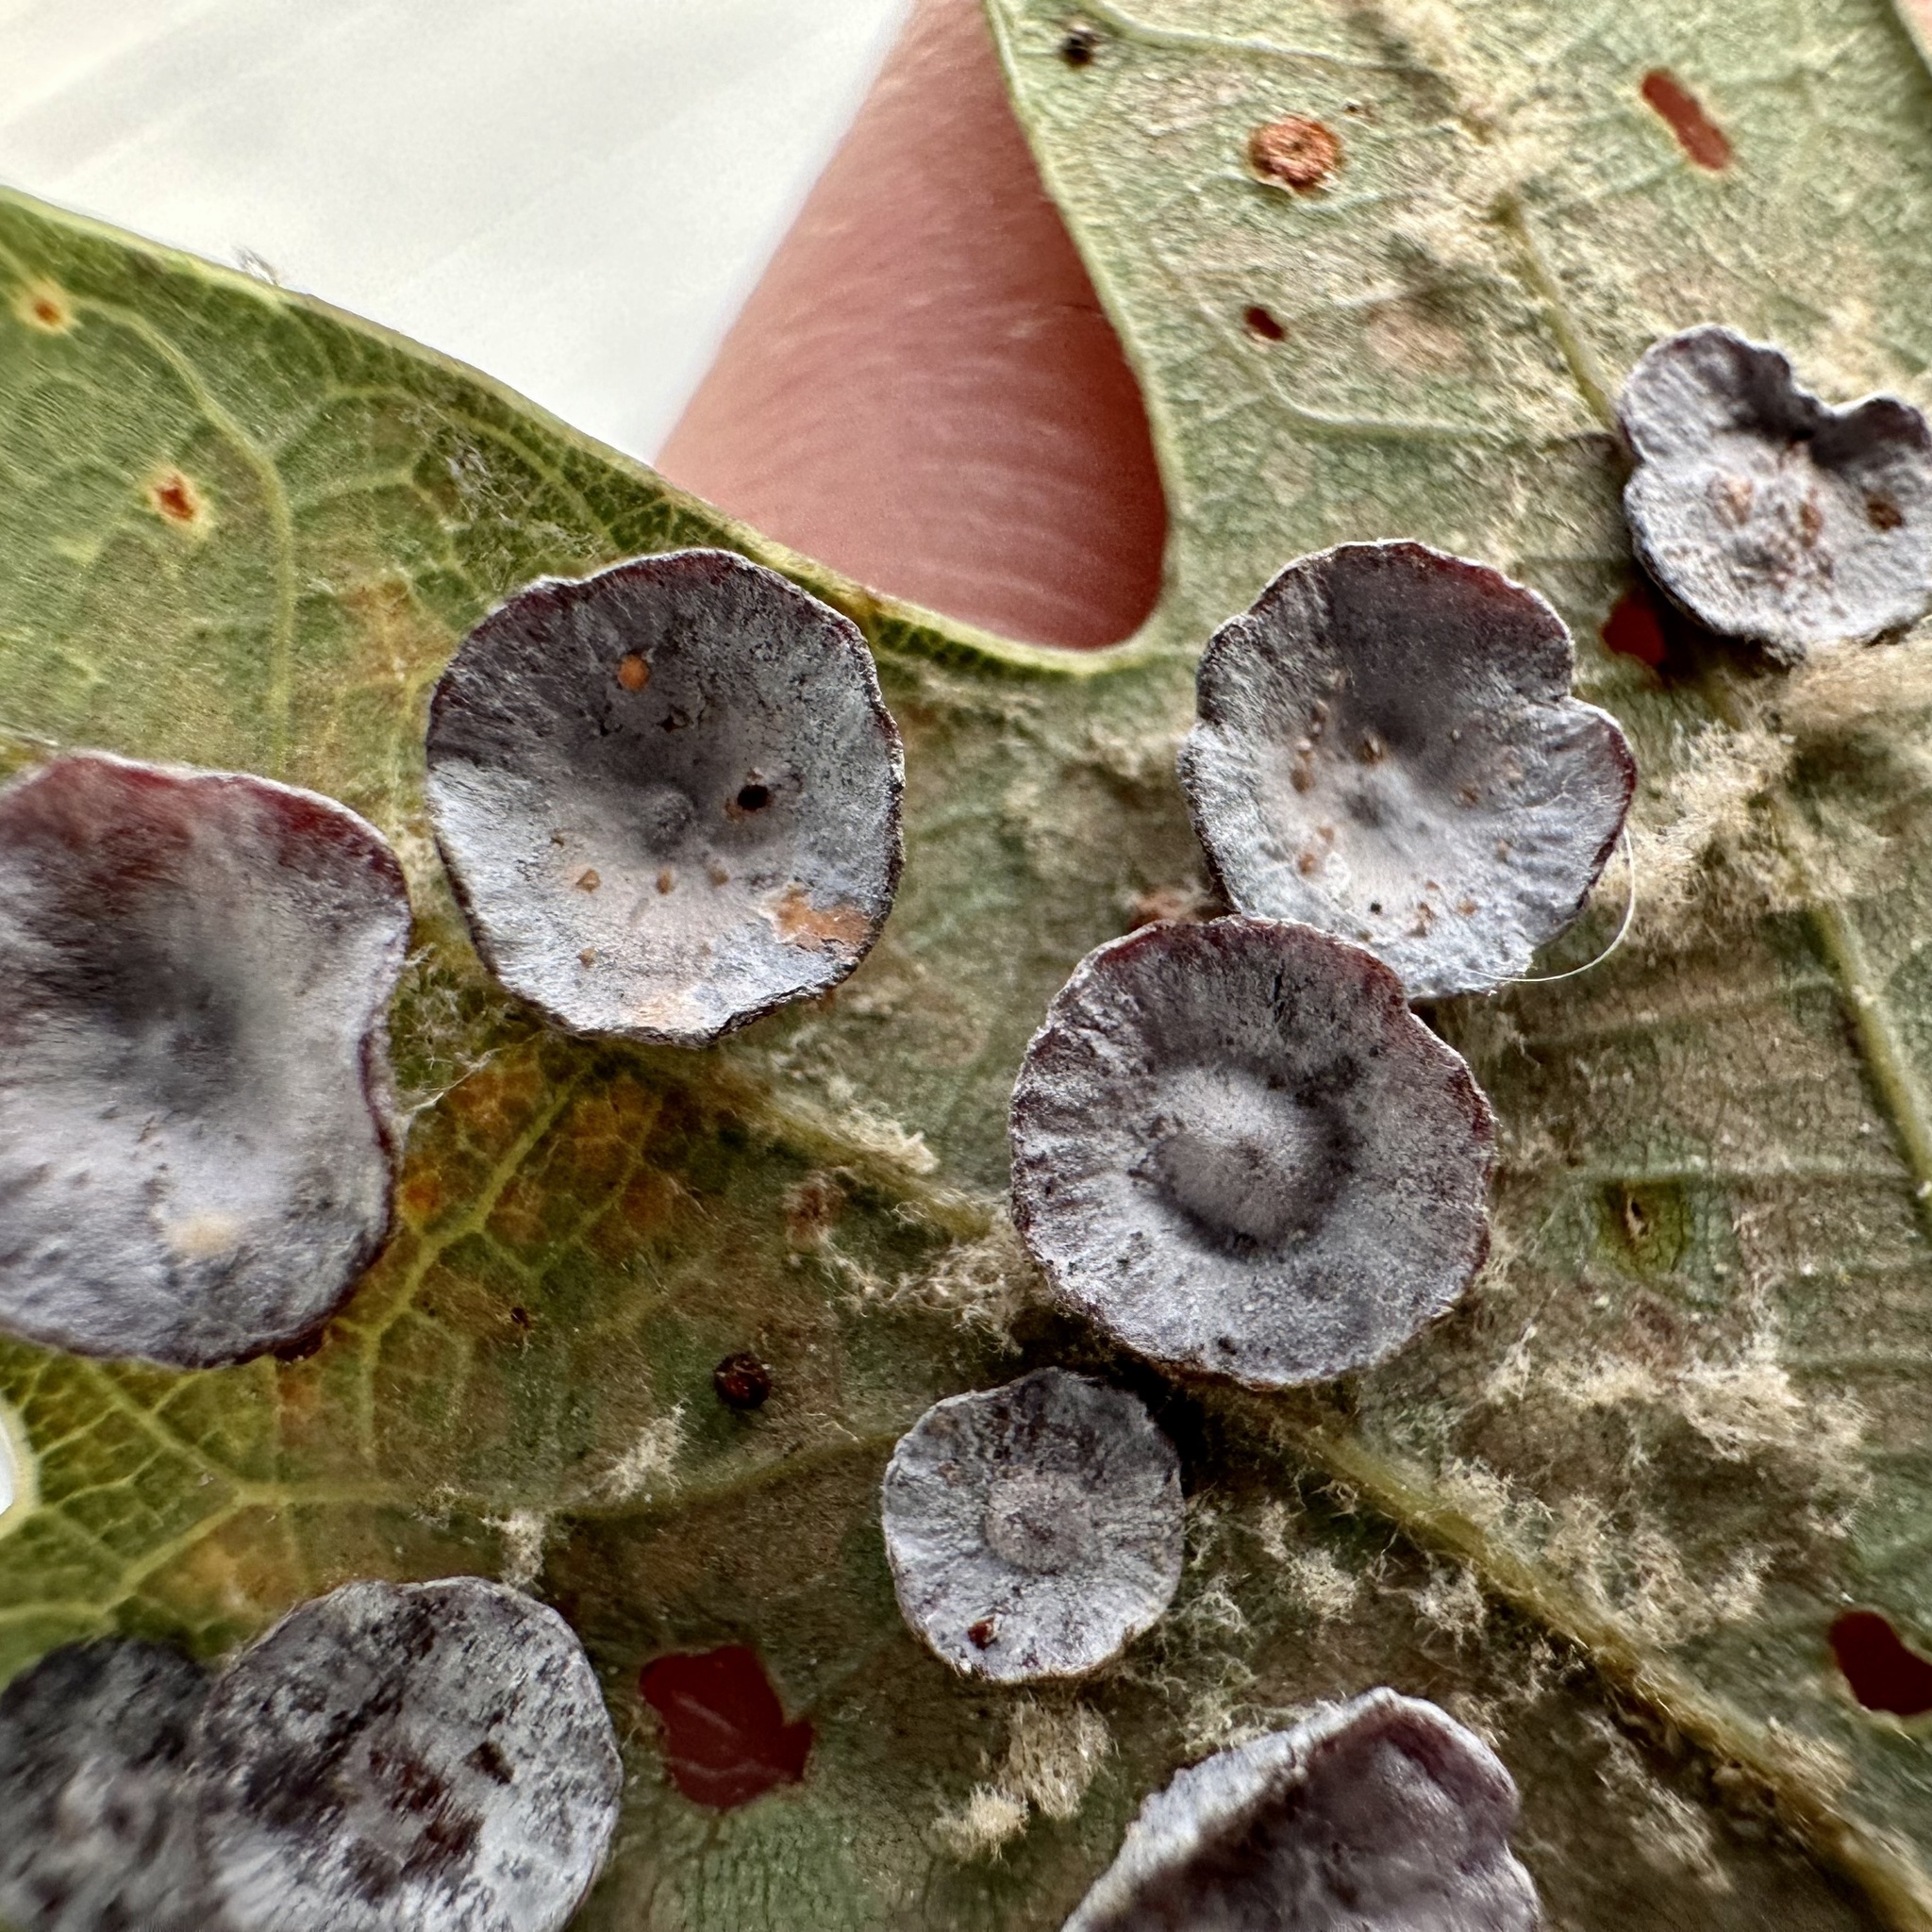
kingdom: Animalia
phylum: Arthropoda
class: Insecta
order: Hymenoptera
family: Cynipidae
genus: Phylloteras
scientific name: Phylloteras poculum
